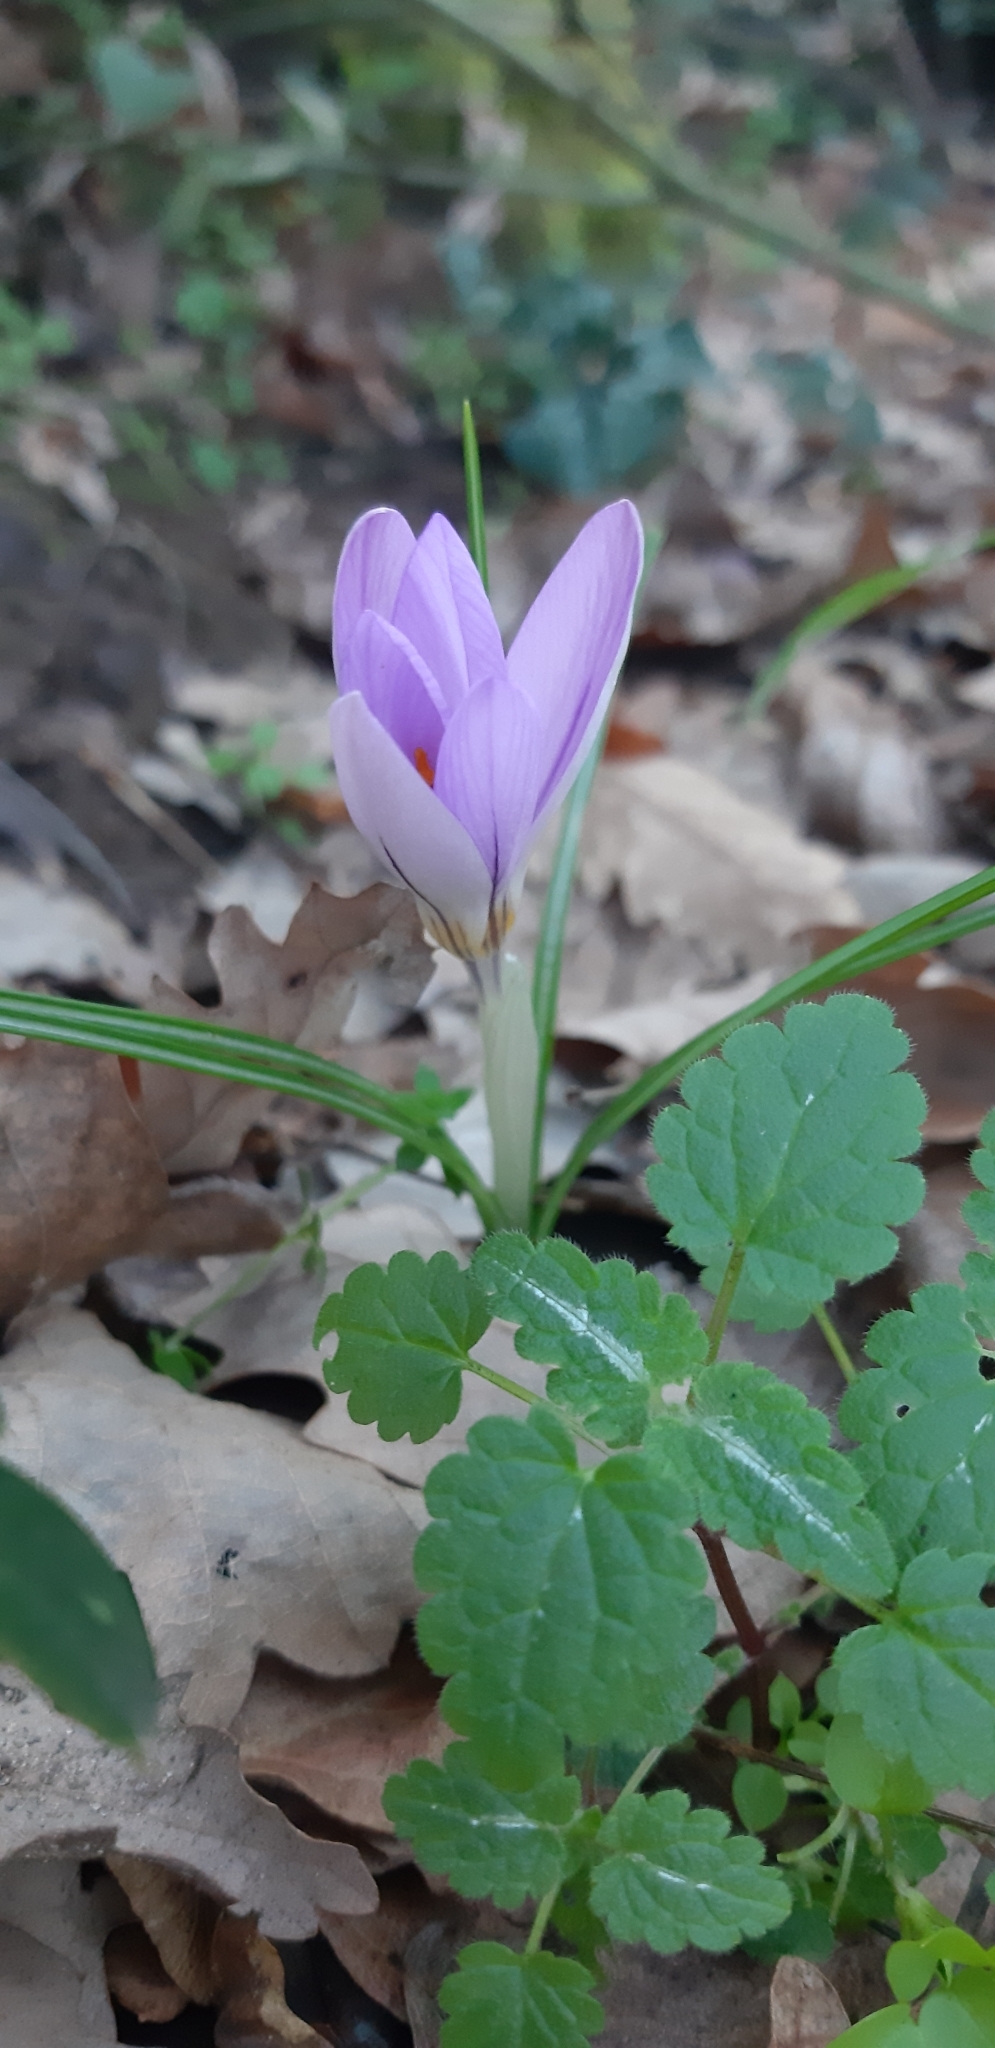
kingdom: Plantae
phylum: Tracheophyta
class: Liliopsida
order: Asparagales
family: Iridaceae
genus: Crocus
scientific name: Crocus biflorus
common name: Silvery crocus
